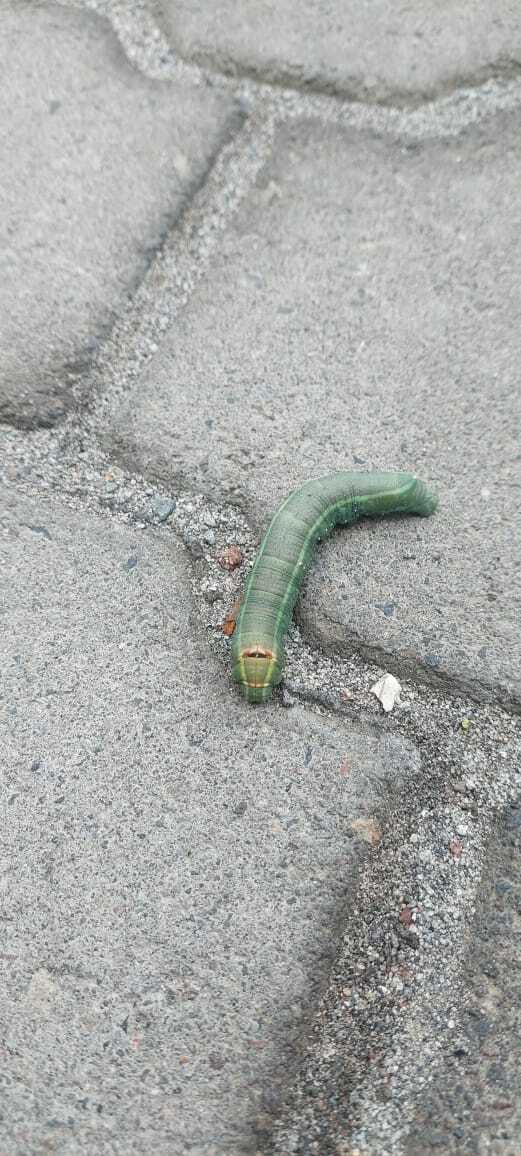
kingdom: Animalia
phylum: Arthropoda
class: Insecta
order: Lepidoptera
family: Sphingidae
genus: Erinnyis
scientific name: Erinnyis ello
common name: Ello sphinx
